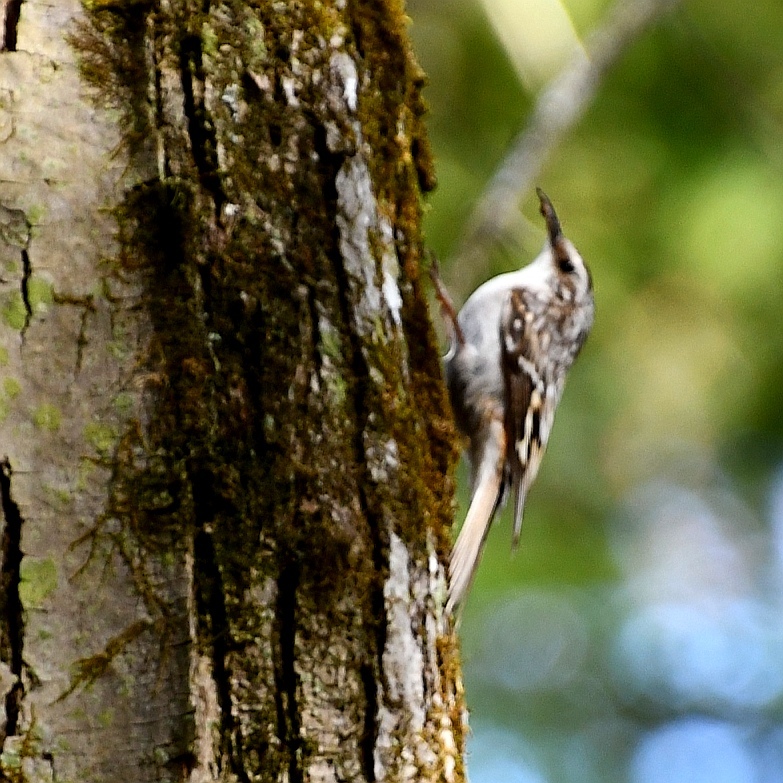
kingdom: Animalia
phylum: Chordata
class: Aves
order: Passeriformes
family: Certhiidae
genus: Certhia
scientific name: Certhia americana
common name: Brown creeper
